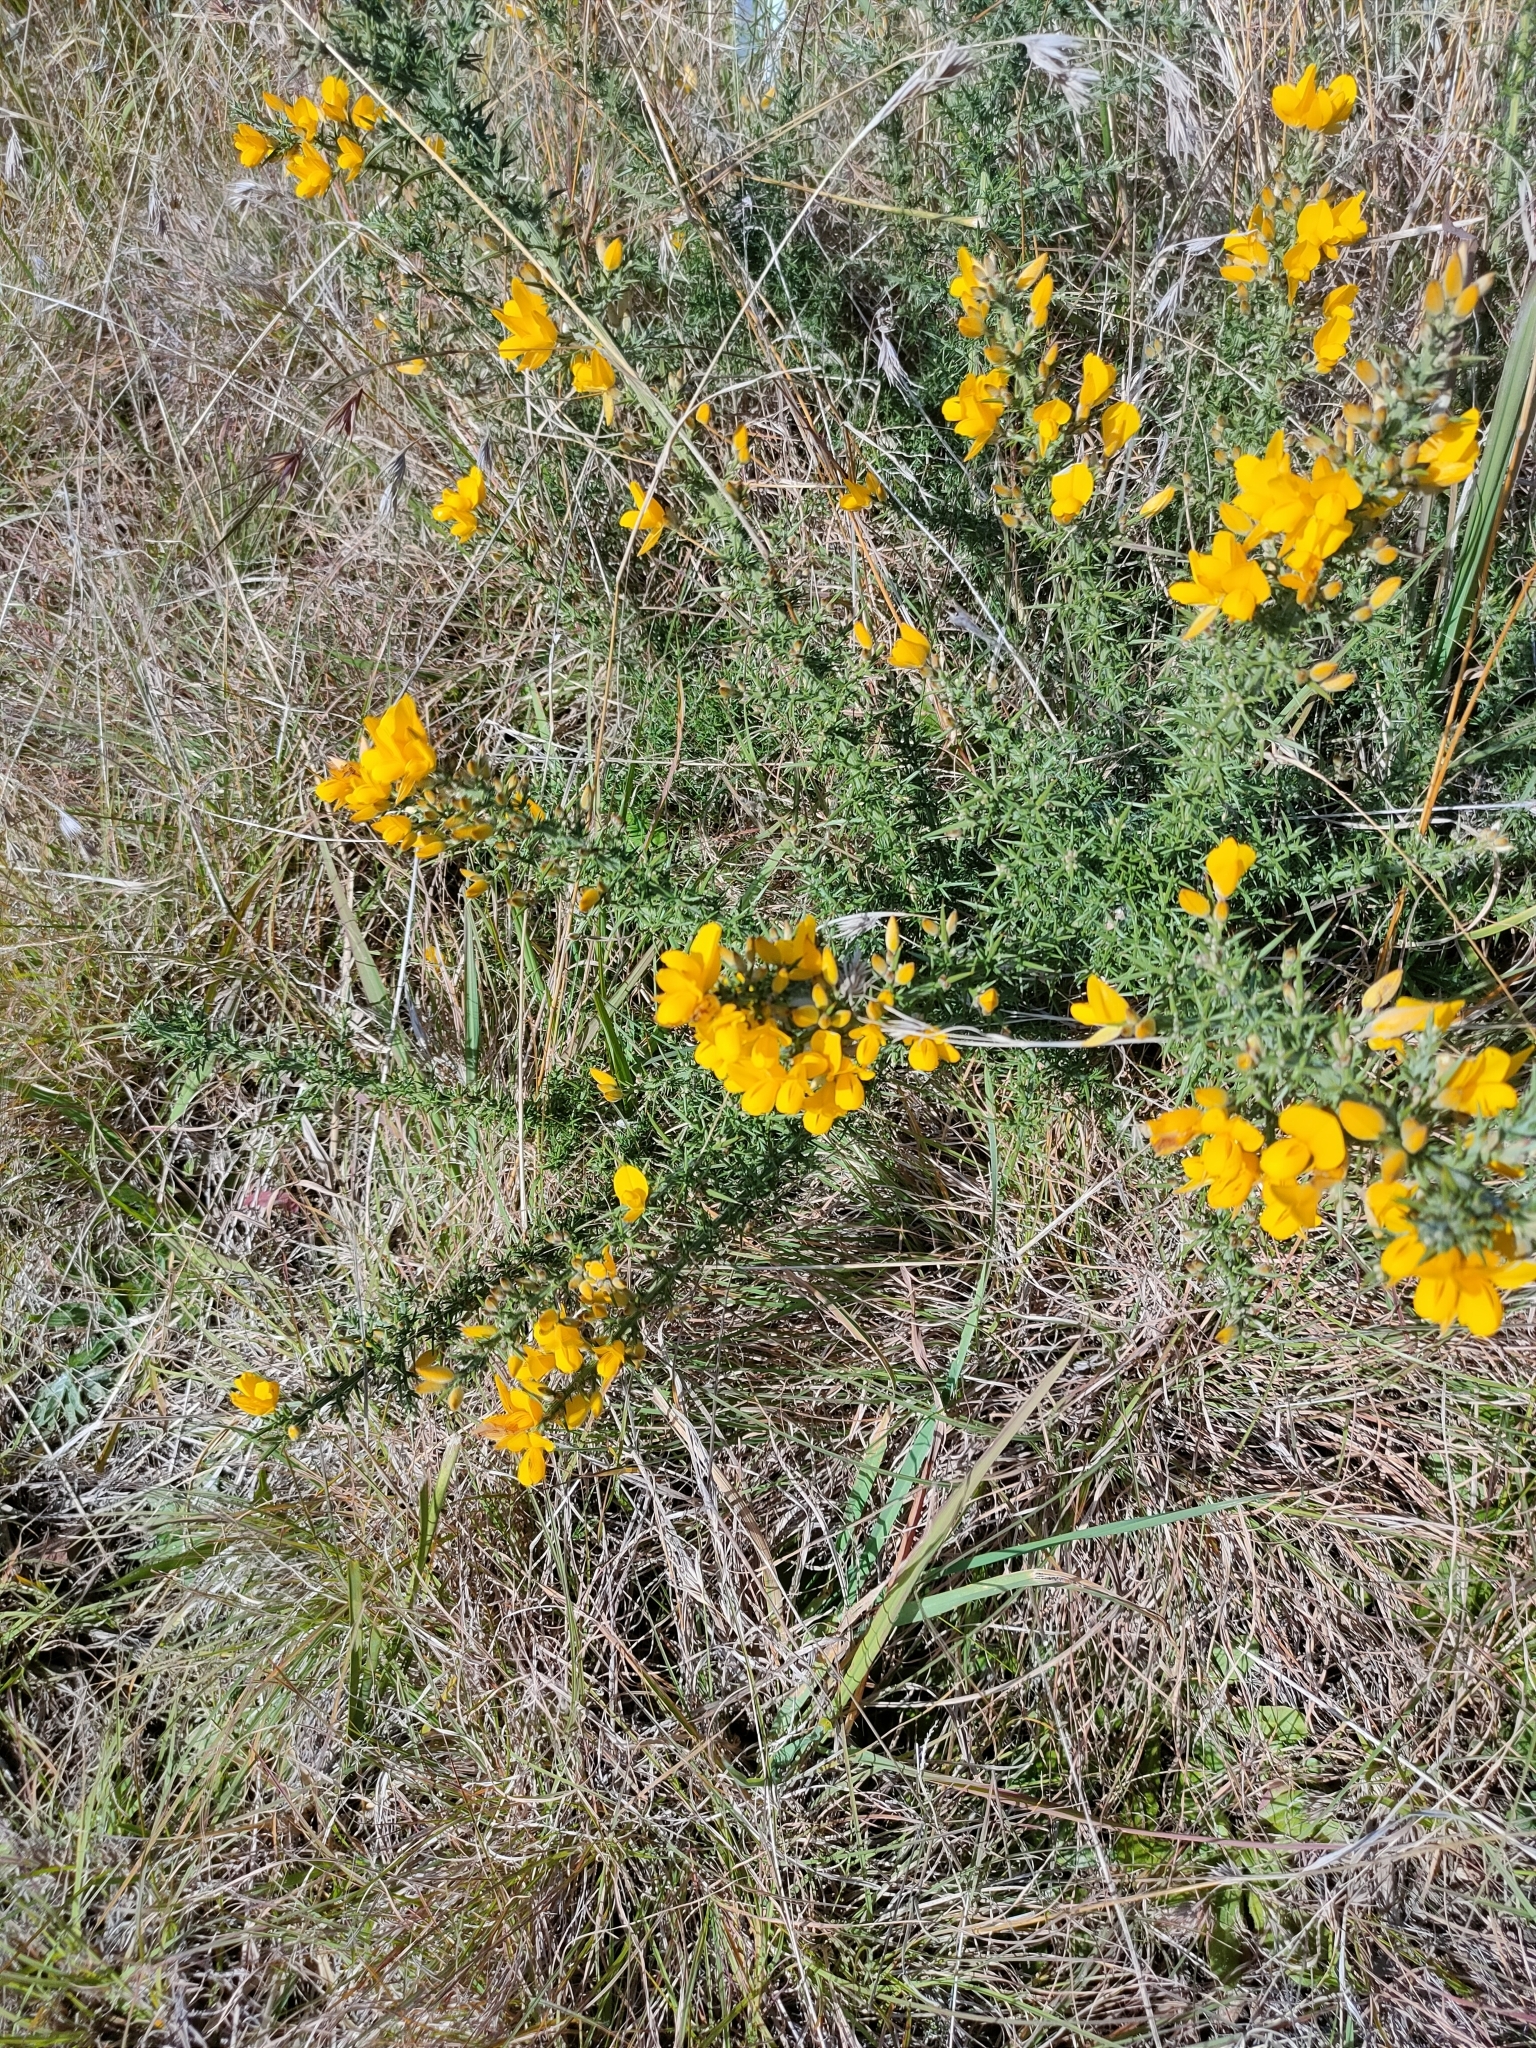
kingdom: Plantae
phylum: Tracheophyta
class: Magnoliopsida
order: Fabales
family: Fabaceae
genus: Ulex
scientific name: Ulex europaeus
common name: Common gorse
